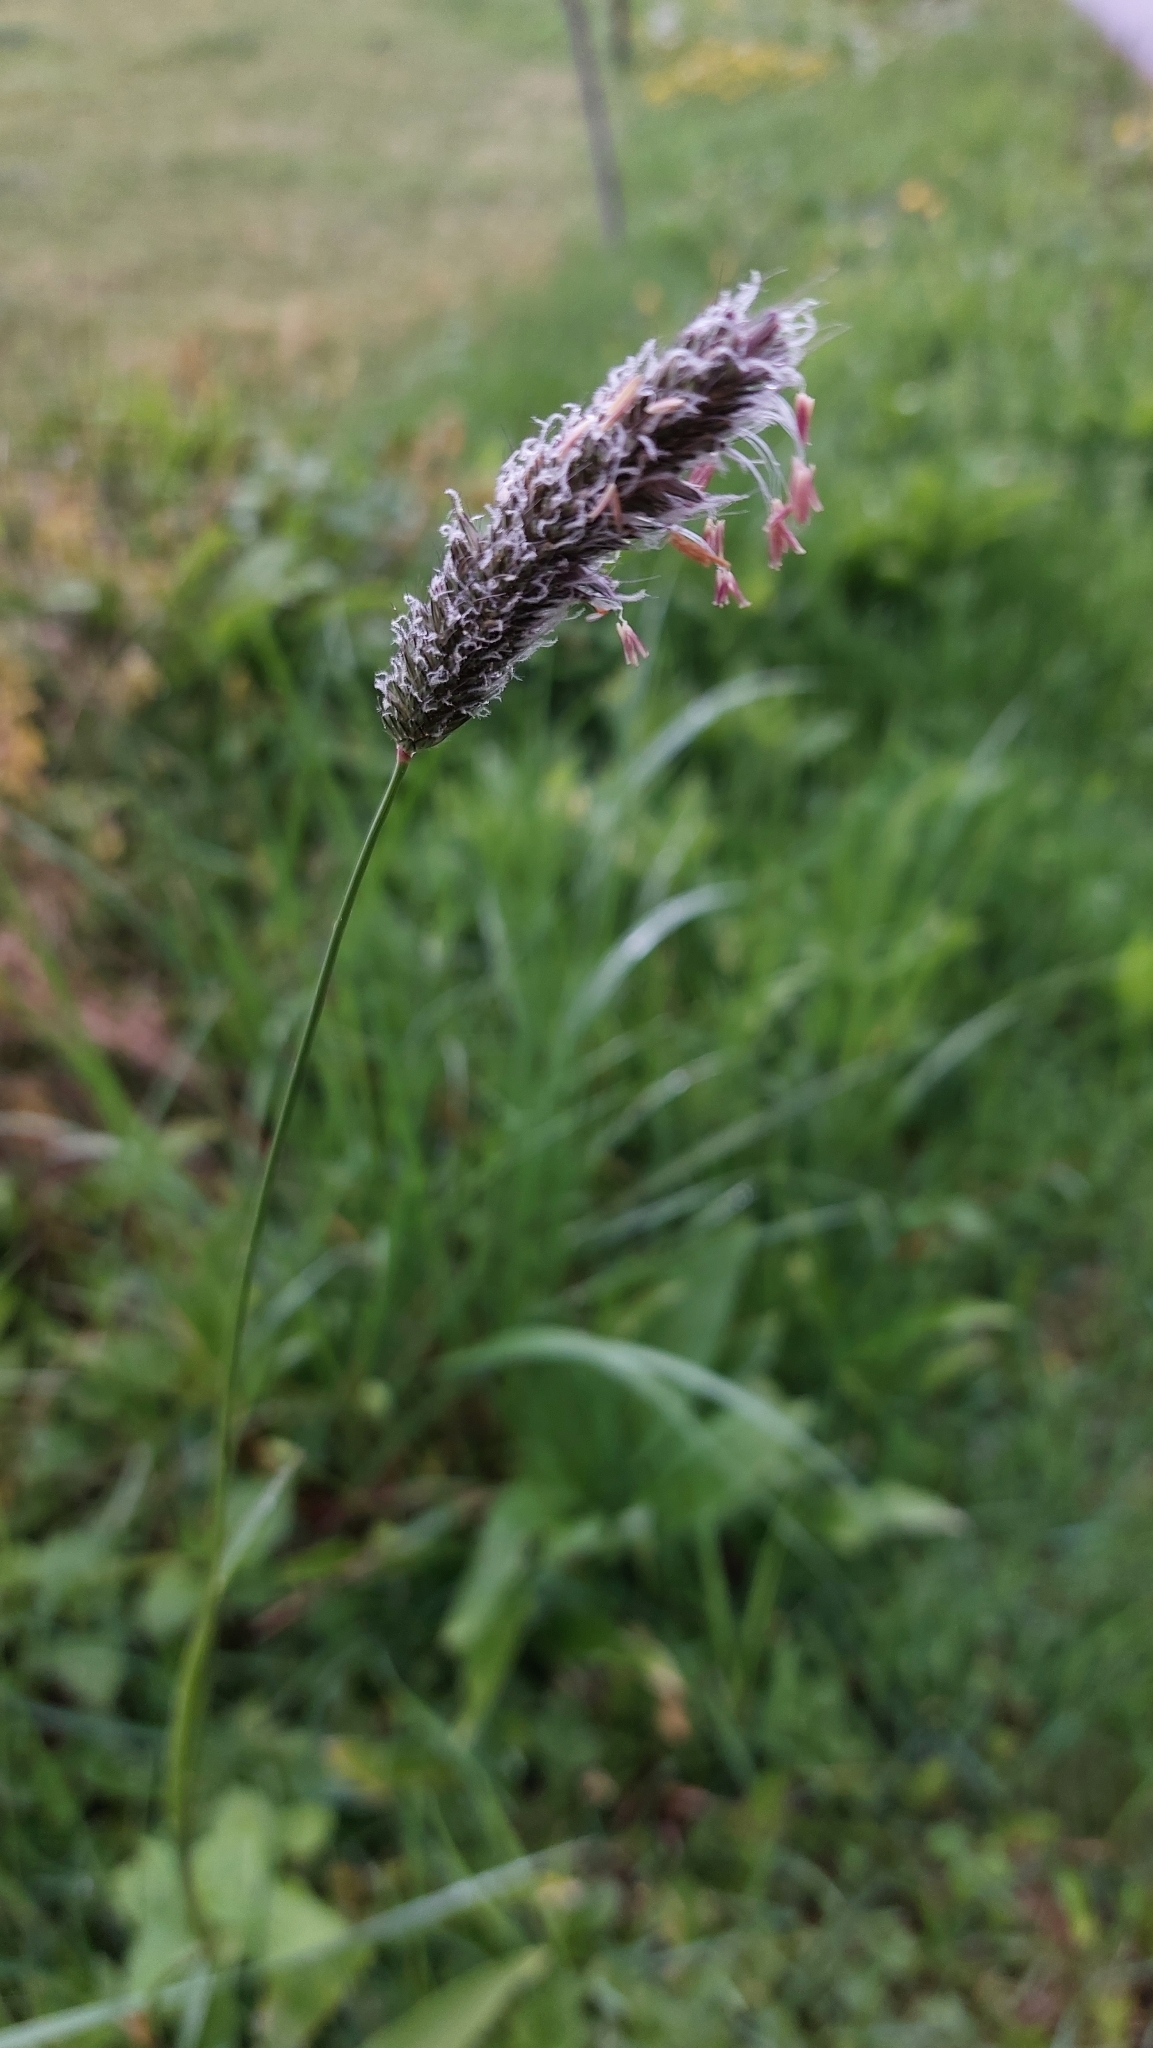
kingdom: Plantae
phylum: Tracheophyta
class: Liliopsida
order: Poales
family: Poaceae
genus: Alopecurus
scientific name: Alopecurus pratensis
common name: Meadow foxtail
